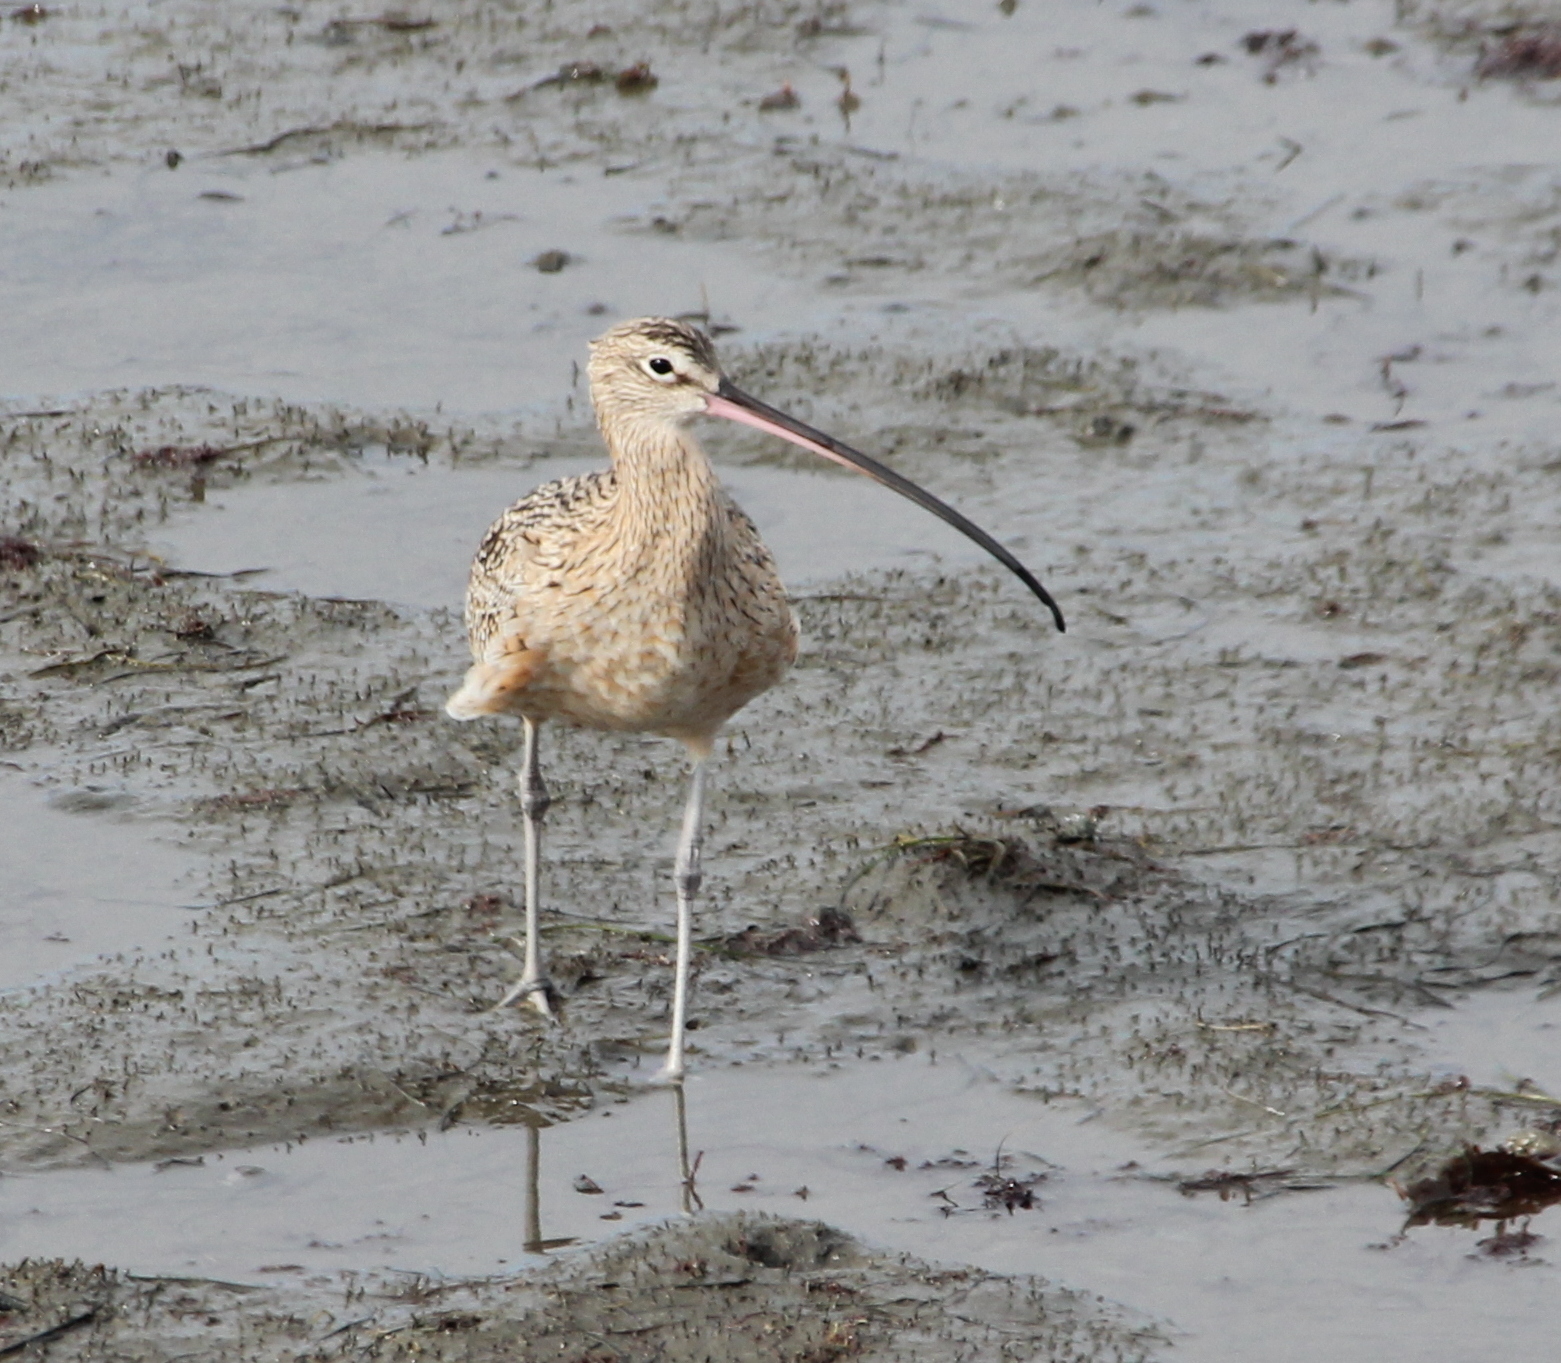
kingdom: Animalia
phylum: Chordata
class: Aves
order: Charadriiformes
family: Scolopacidae
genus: Numenius
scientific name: Numenius americanus
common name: Long-billed curlew
